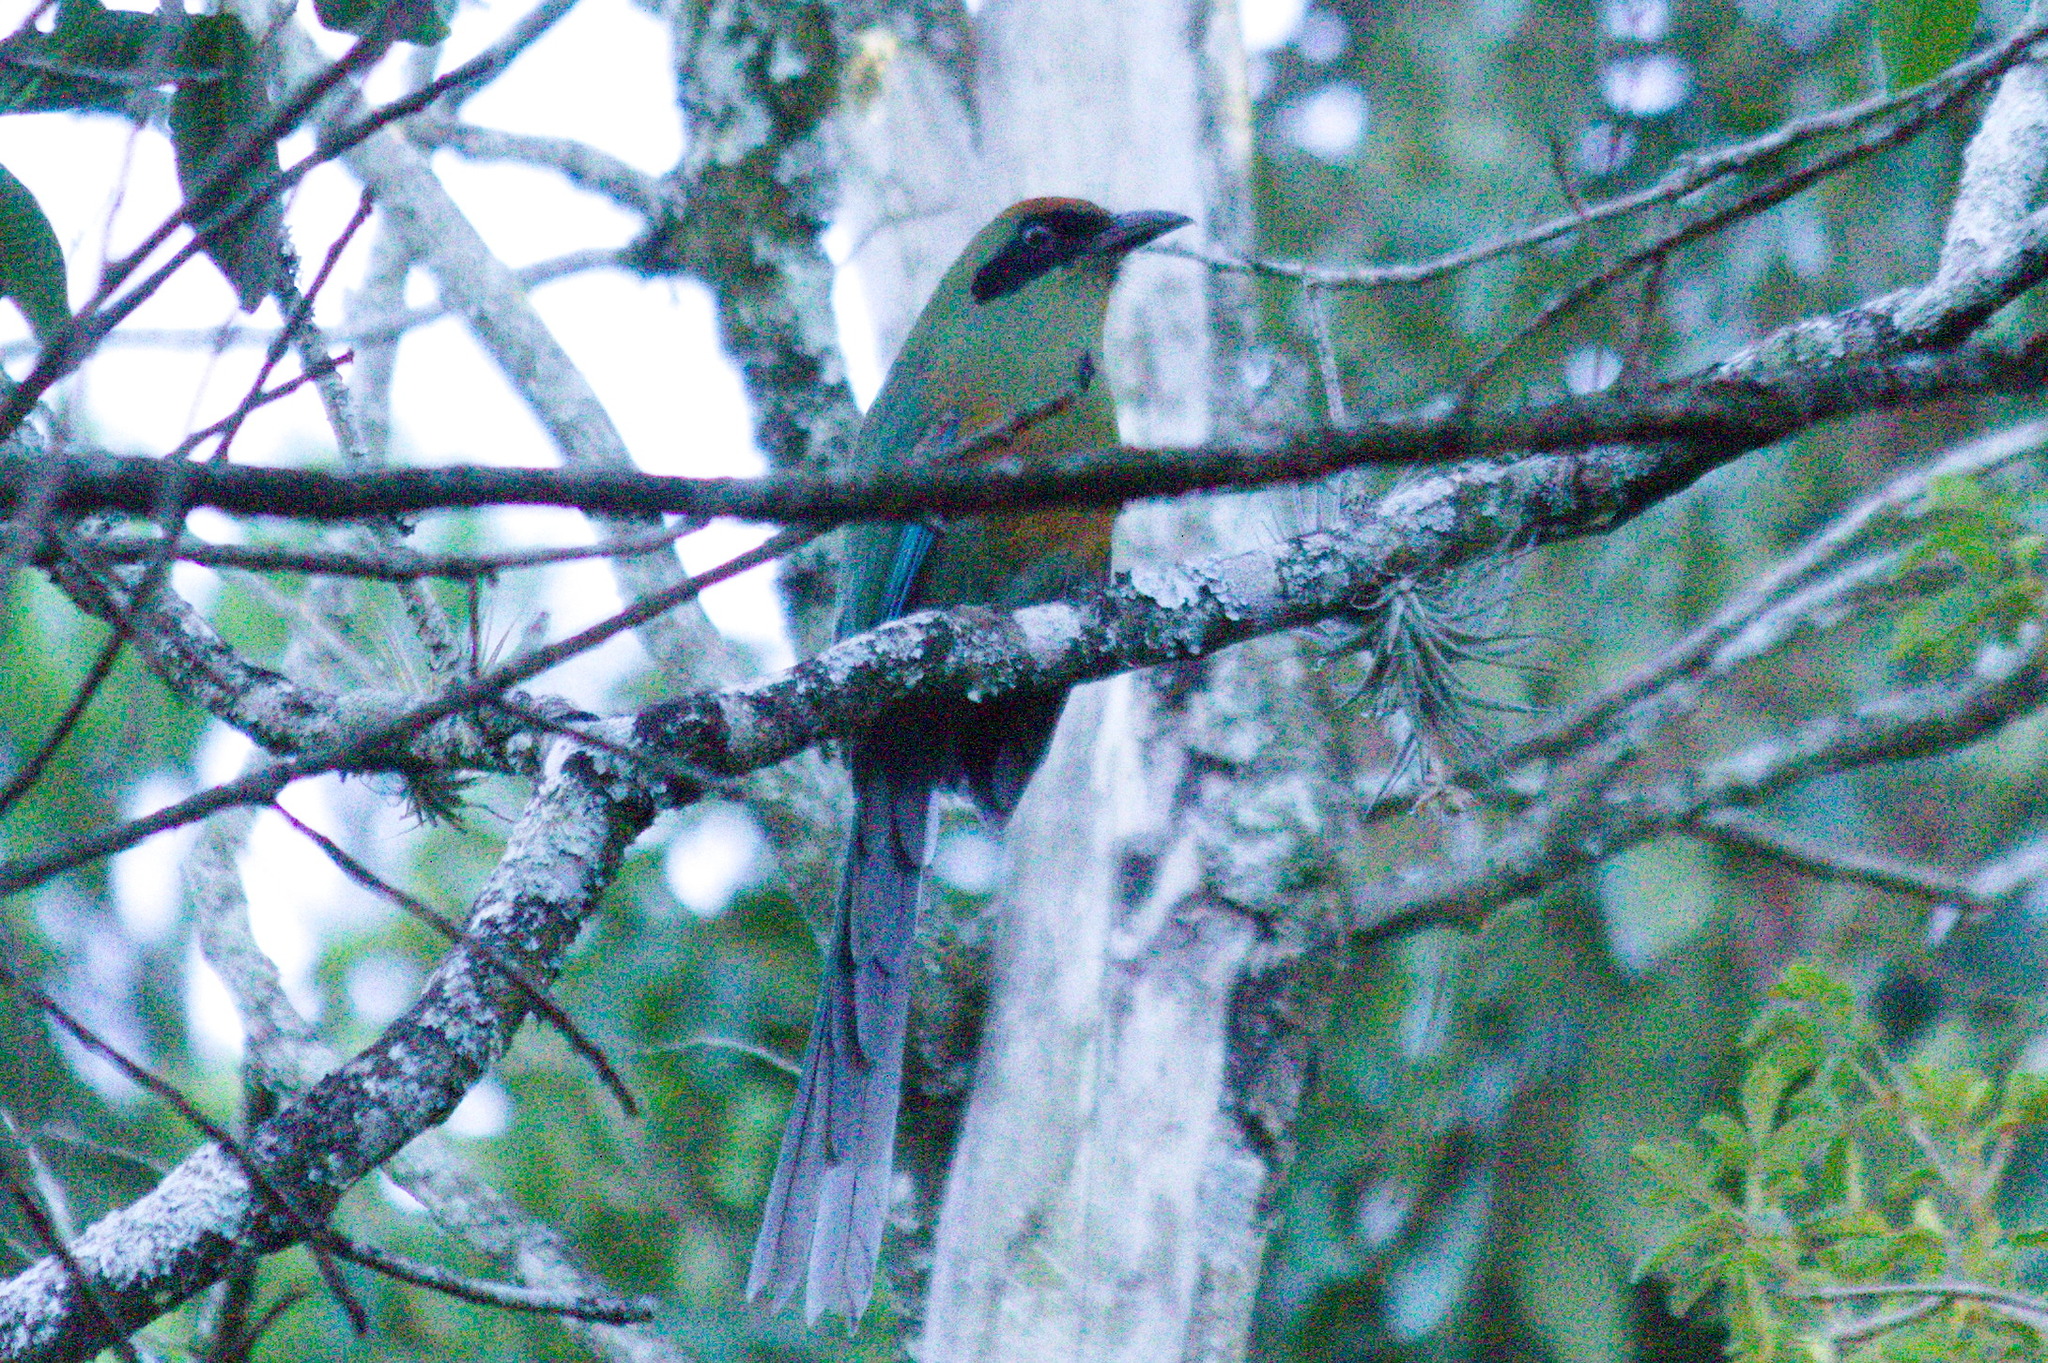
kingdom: Animalia
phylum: Chordata
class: Aves
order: Coraciiformes
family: Momotidae
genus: Baryphthengus
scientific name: Baryphthengus ruficapillus
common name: Rufous-capped motmot
